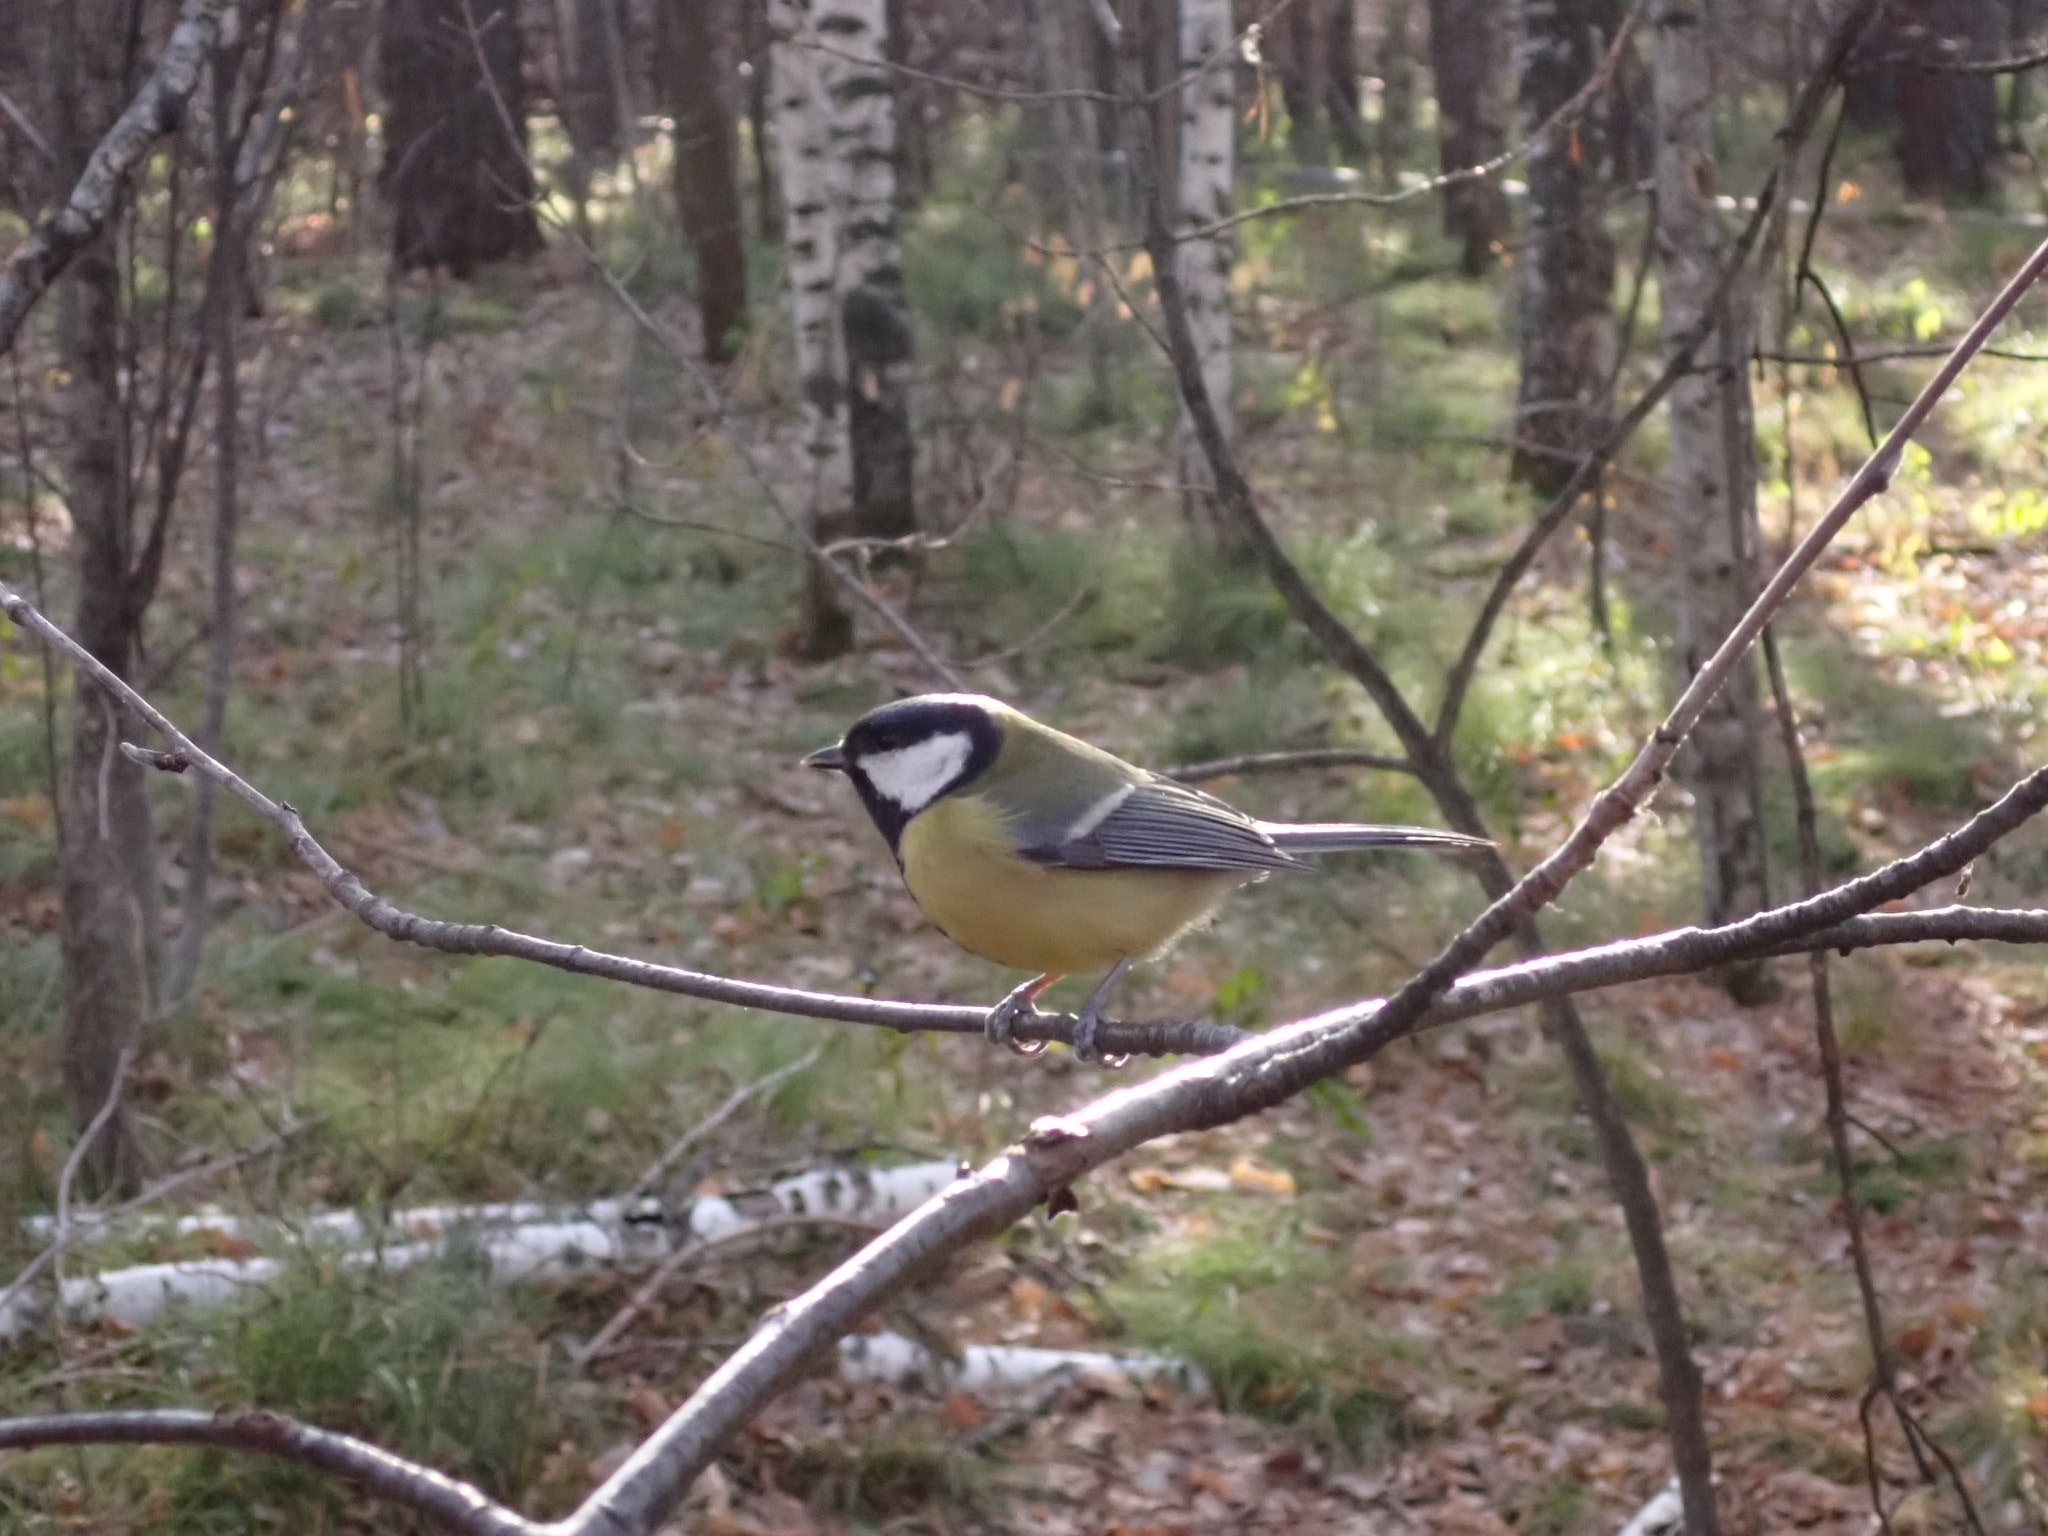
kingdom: Animalia
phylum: Chordata
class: Aves
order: Passeriformes
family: Paridae
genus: Parus
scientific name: Parus major
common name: Great tit
